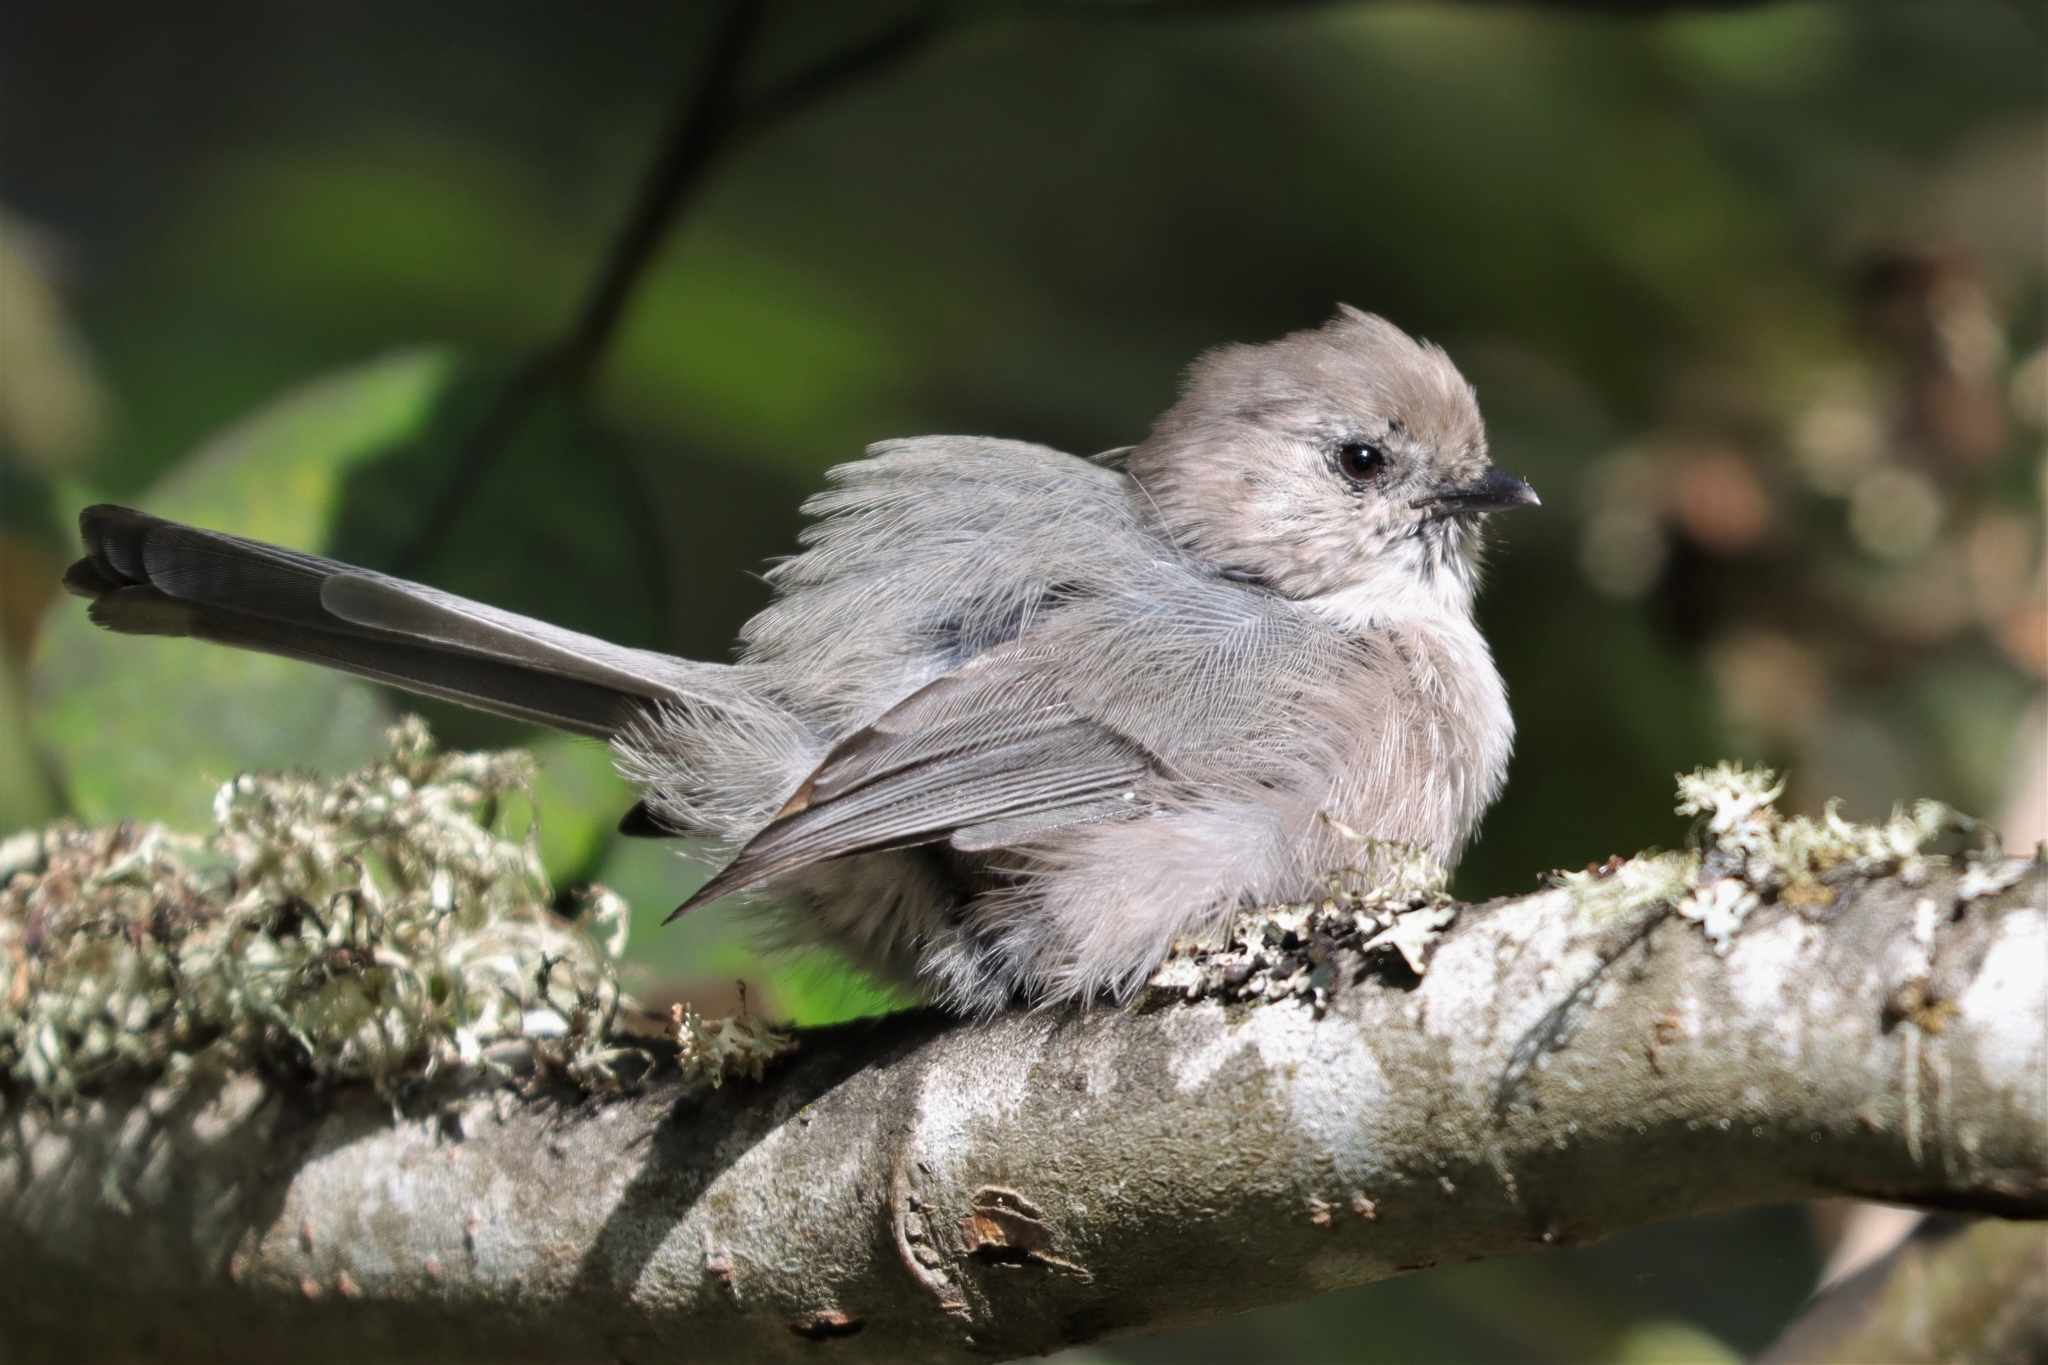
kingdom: Animalia
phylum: Chordata
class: Aves
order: Passeriformes
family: Aegithalidae
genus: Psaltriparus
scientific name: Psaltriparus minimus
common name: American bushtit
